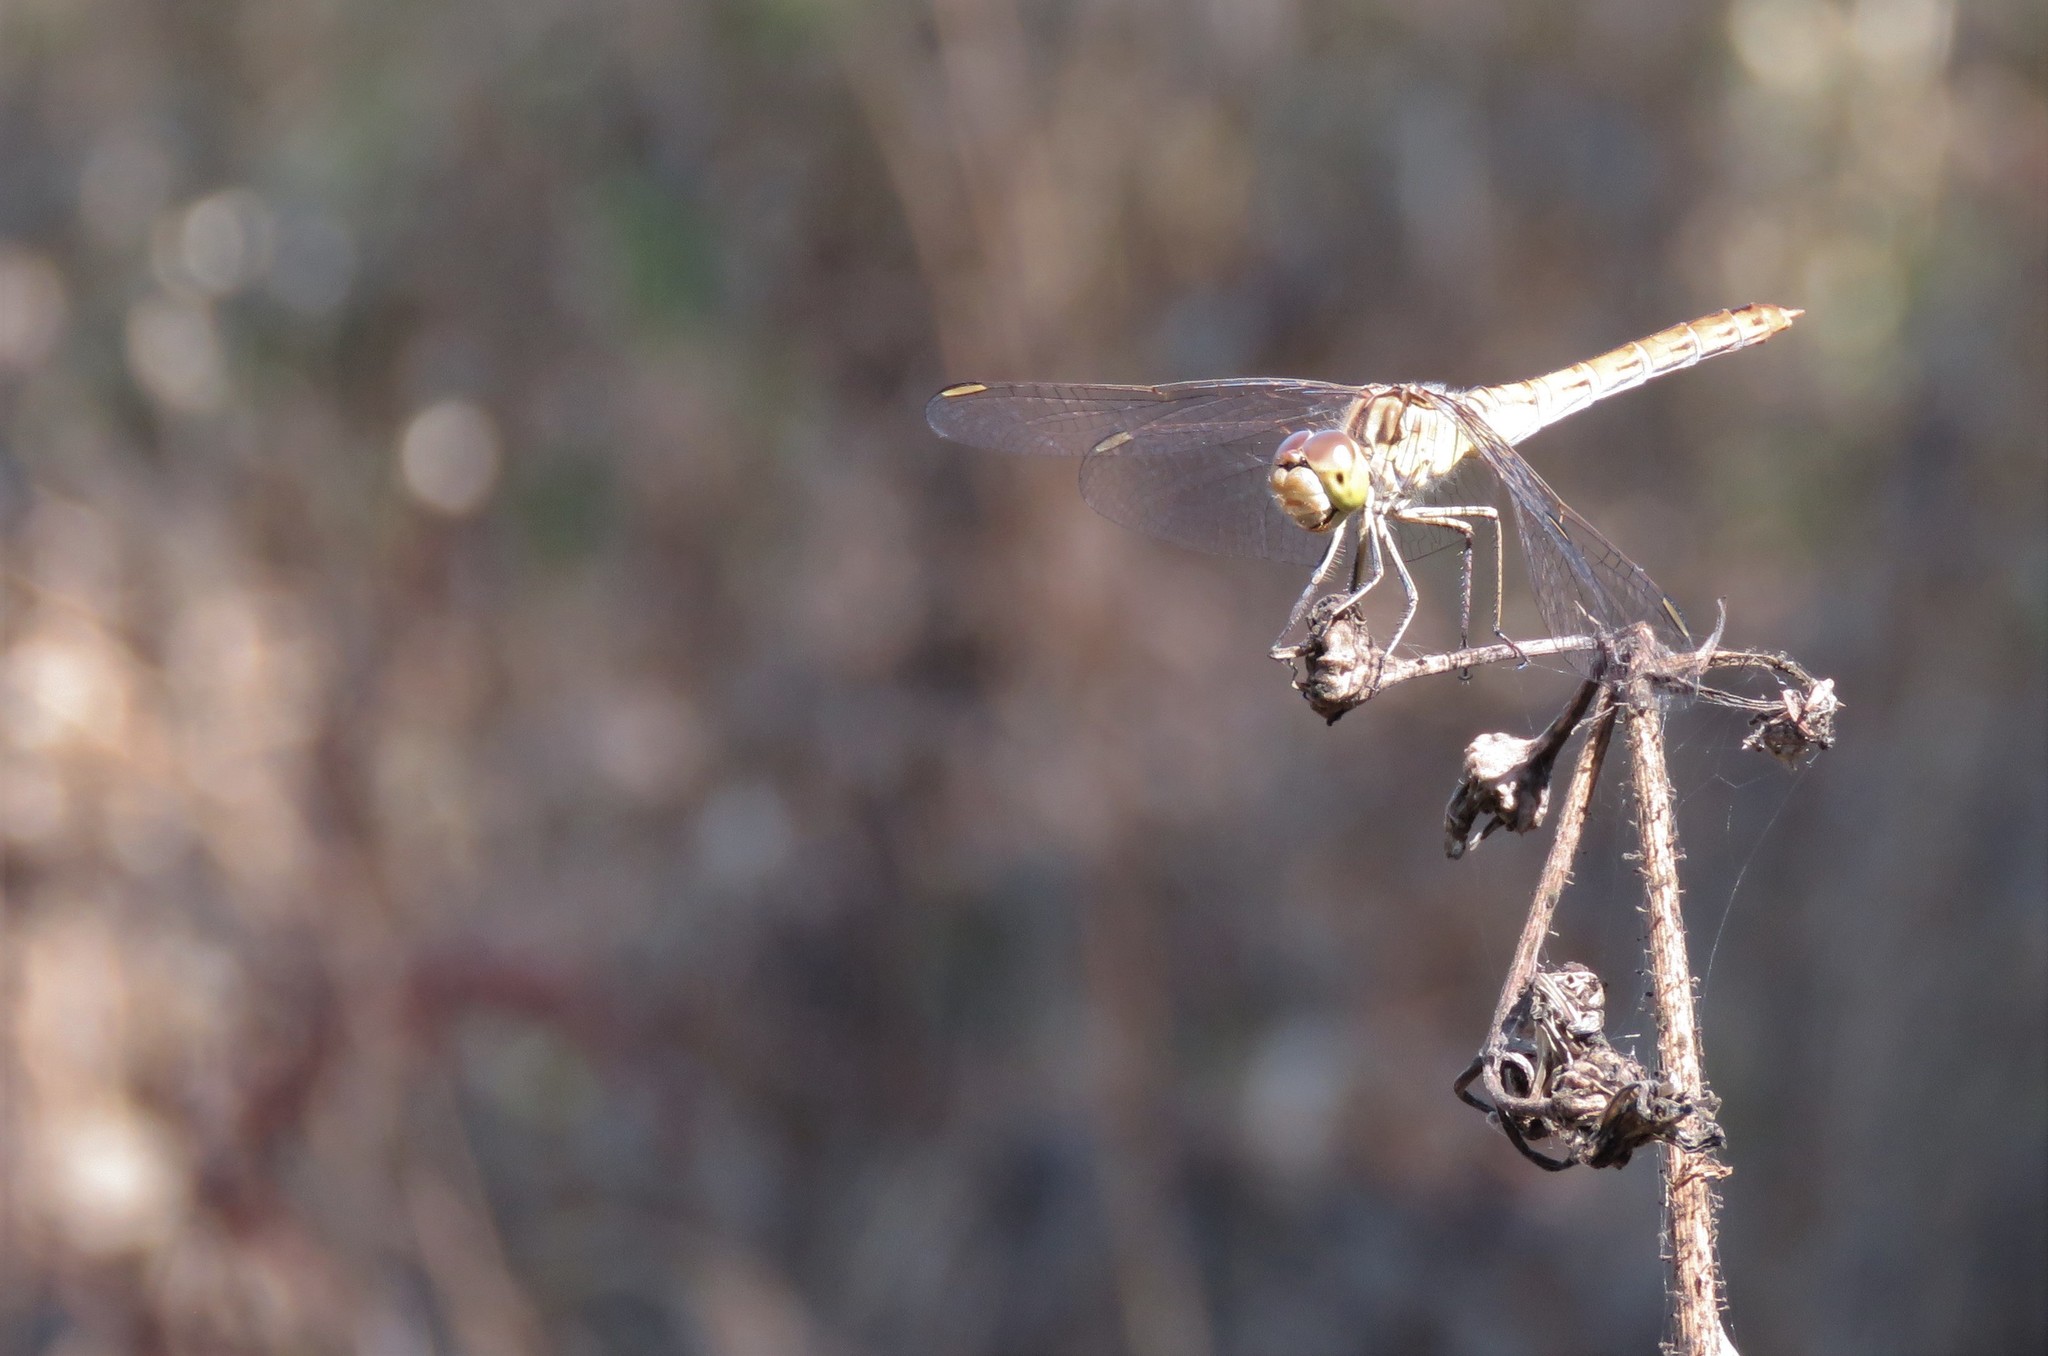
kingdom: Animalia
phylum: Arthropoda
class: Insecta
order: Odonata
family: Libellulidae
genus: Sympetrum
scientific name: Sympetrum meridionale
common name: Southern darter
